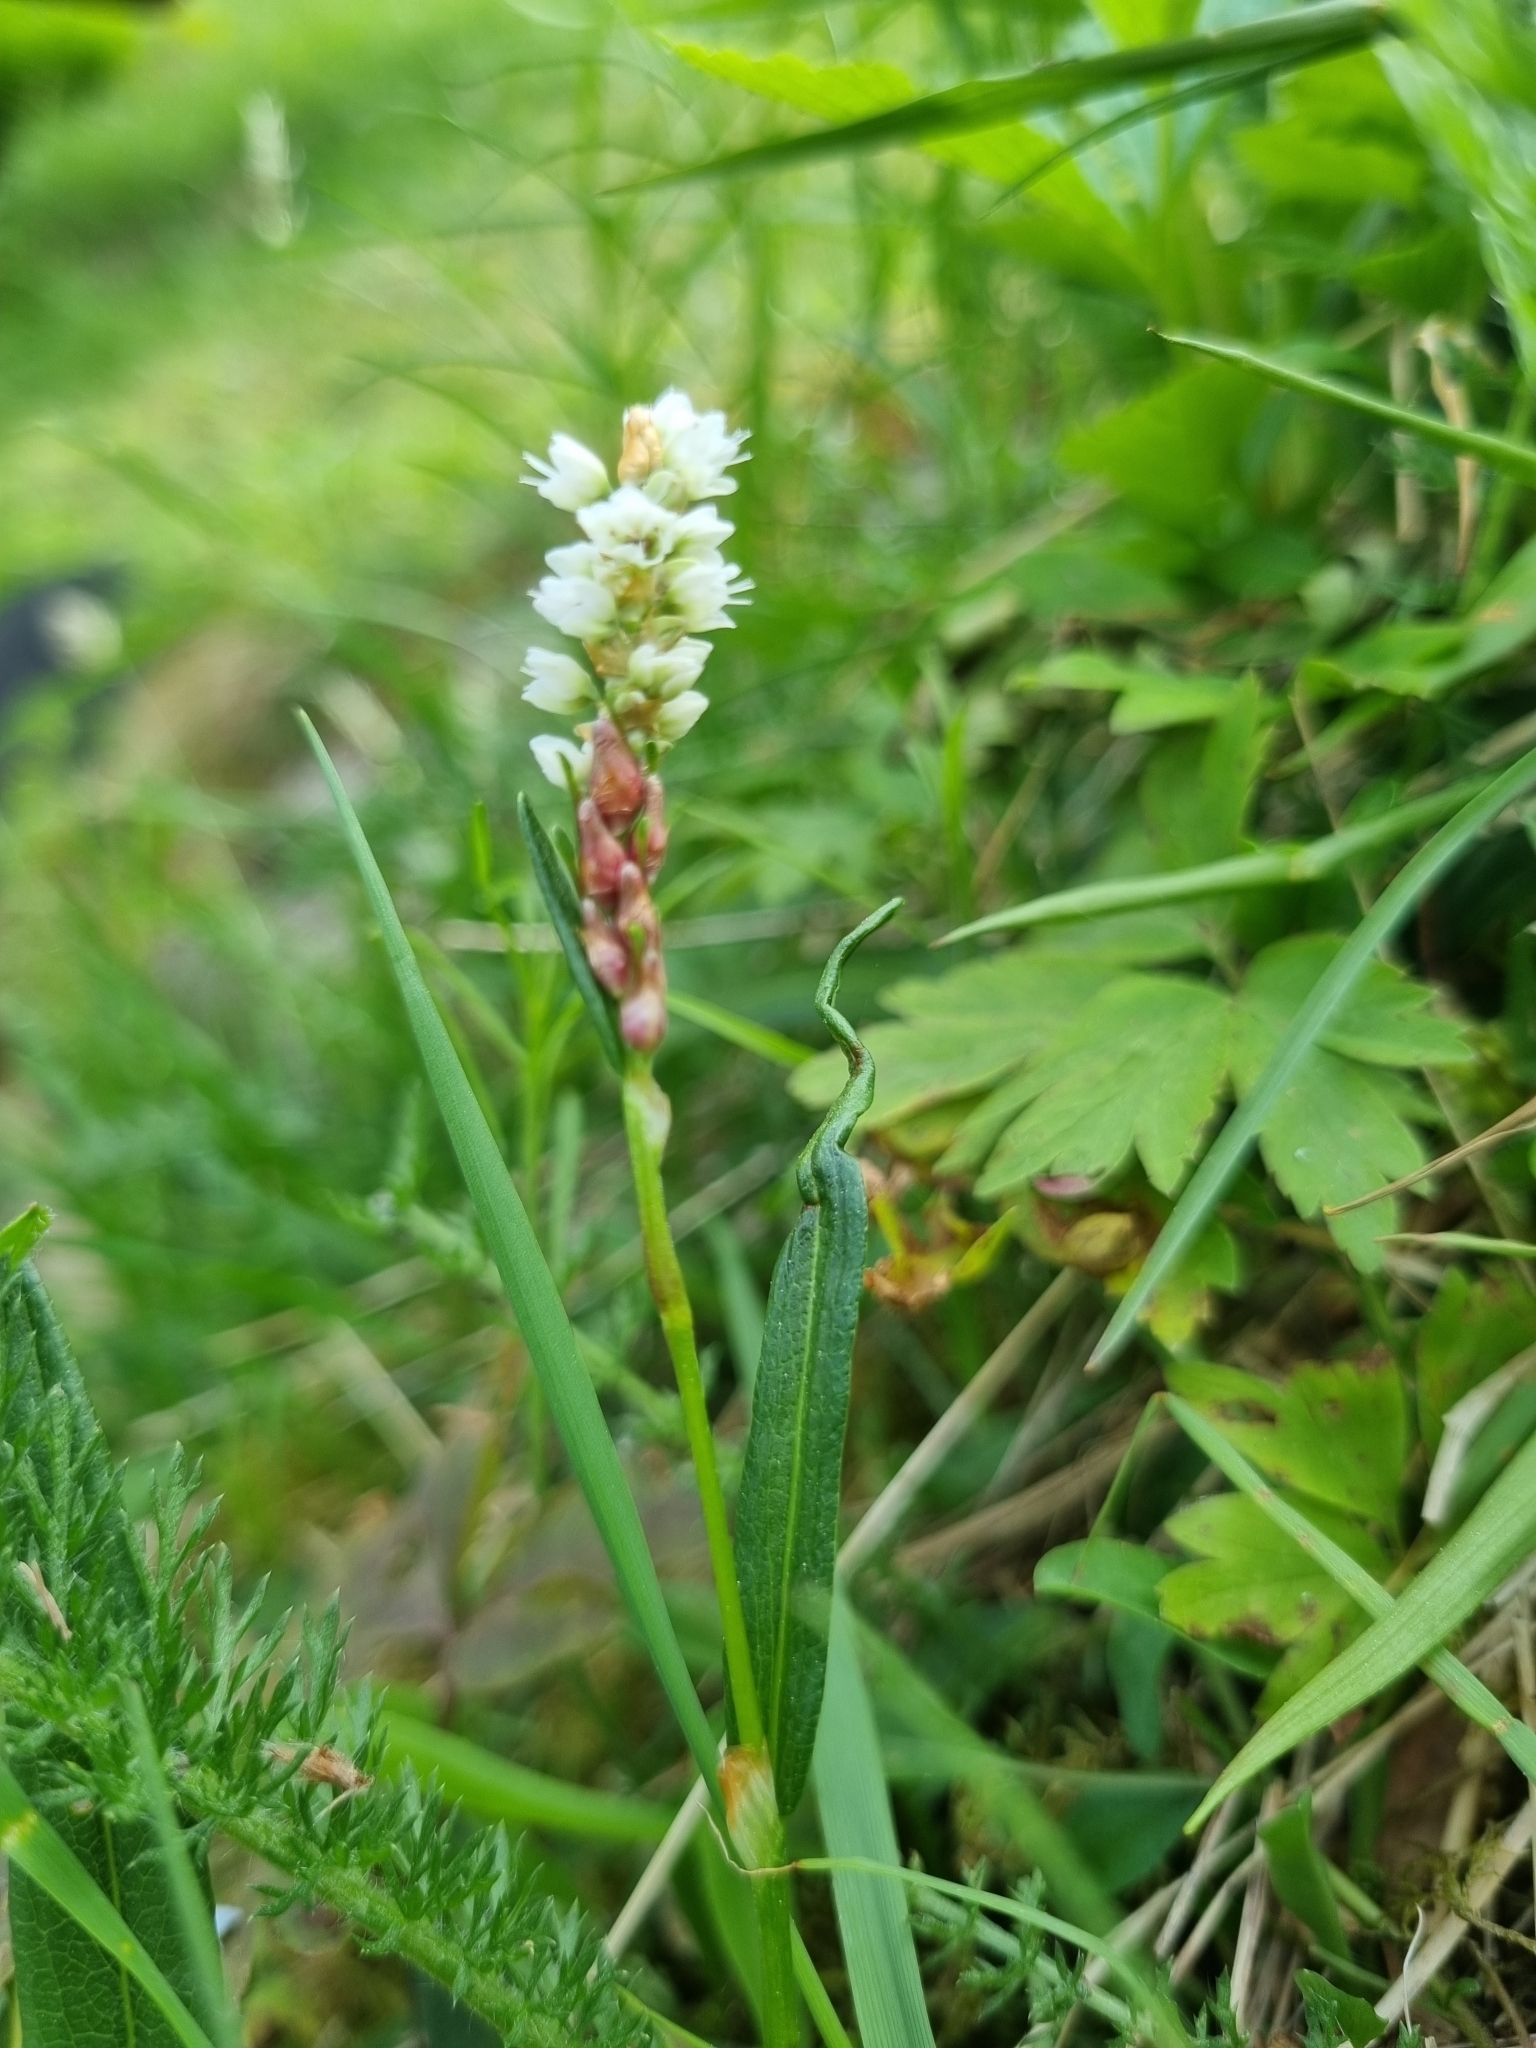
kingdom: Plantae
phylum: Tracheophyta
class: Magnoliopsida
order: Caryophyllales
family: Polygonaceae
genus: Bistorta
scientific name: Bistorta vivipara
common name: Alpine bistort
